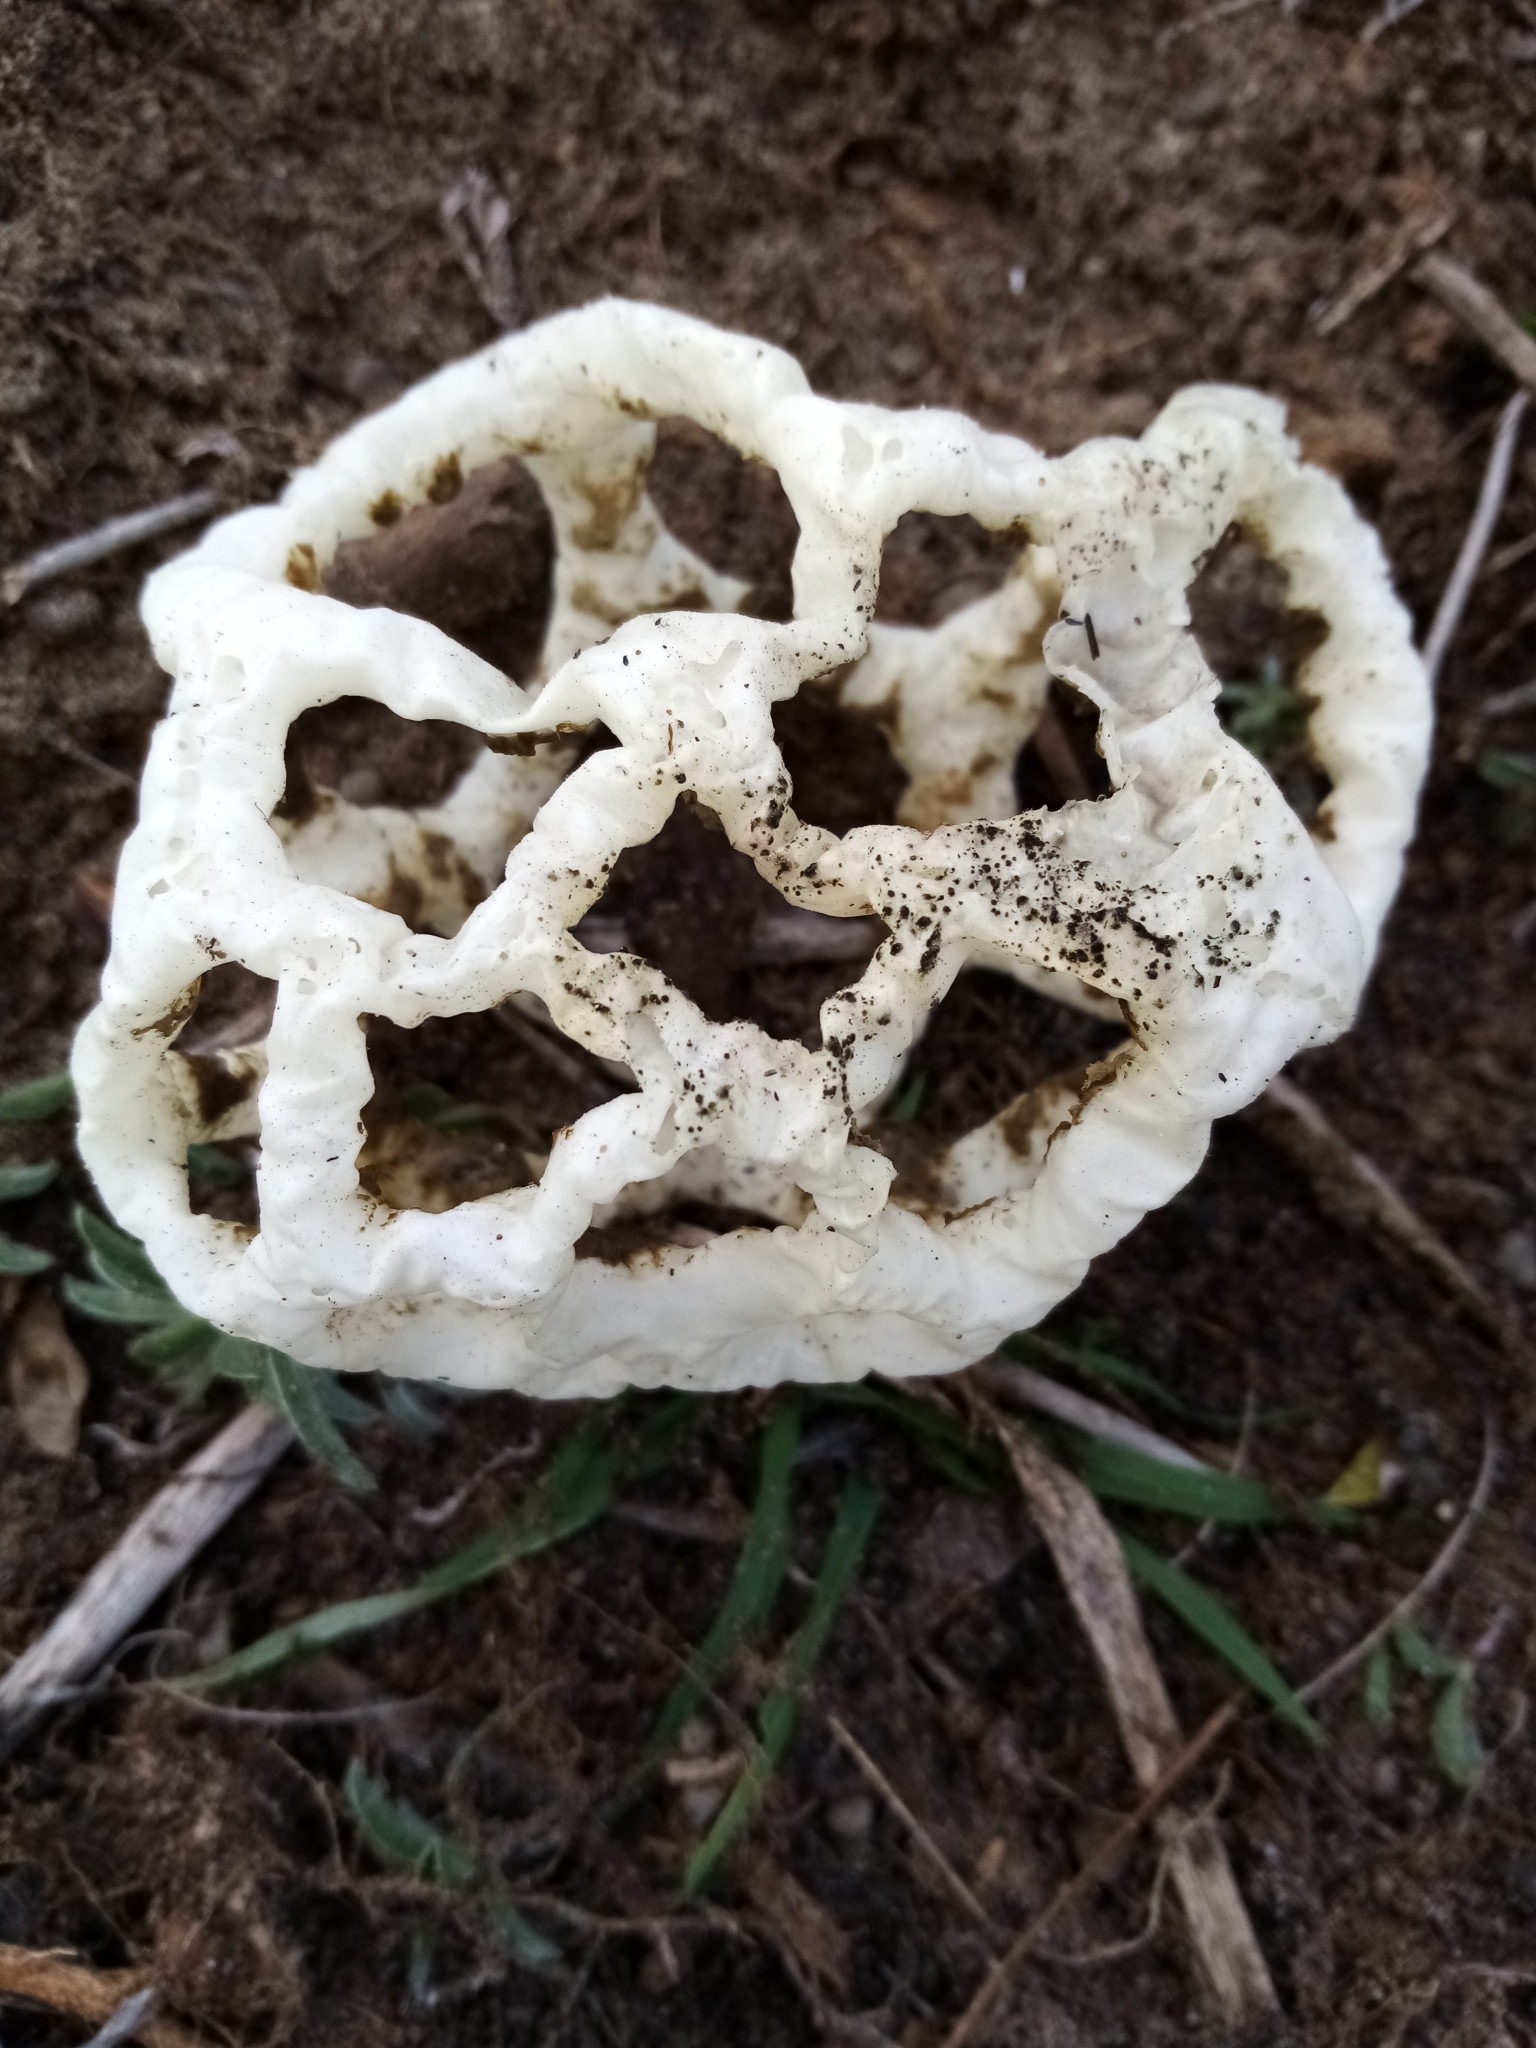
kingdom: Fungi
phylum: Basidiomycota
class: Agaricomycetes
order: Phallales
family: Phallaceae
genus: Ileodictyon
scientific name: Ileodictyon cibarium
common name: Basket fungus
